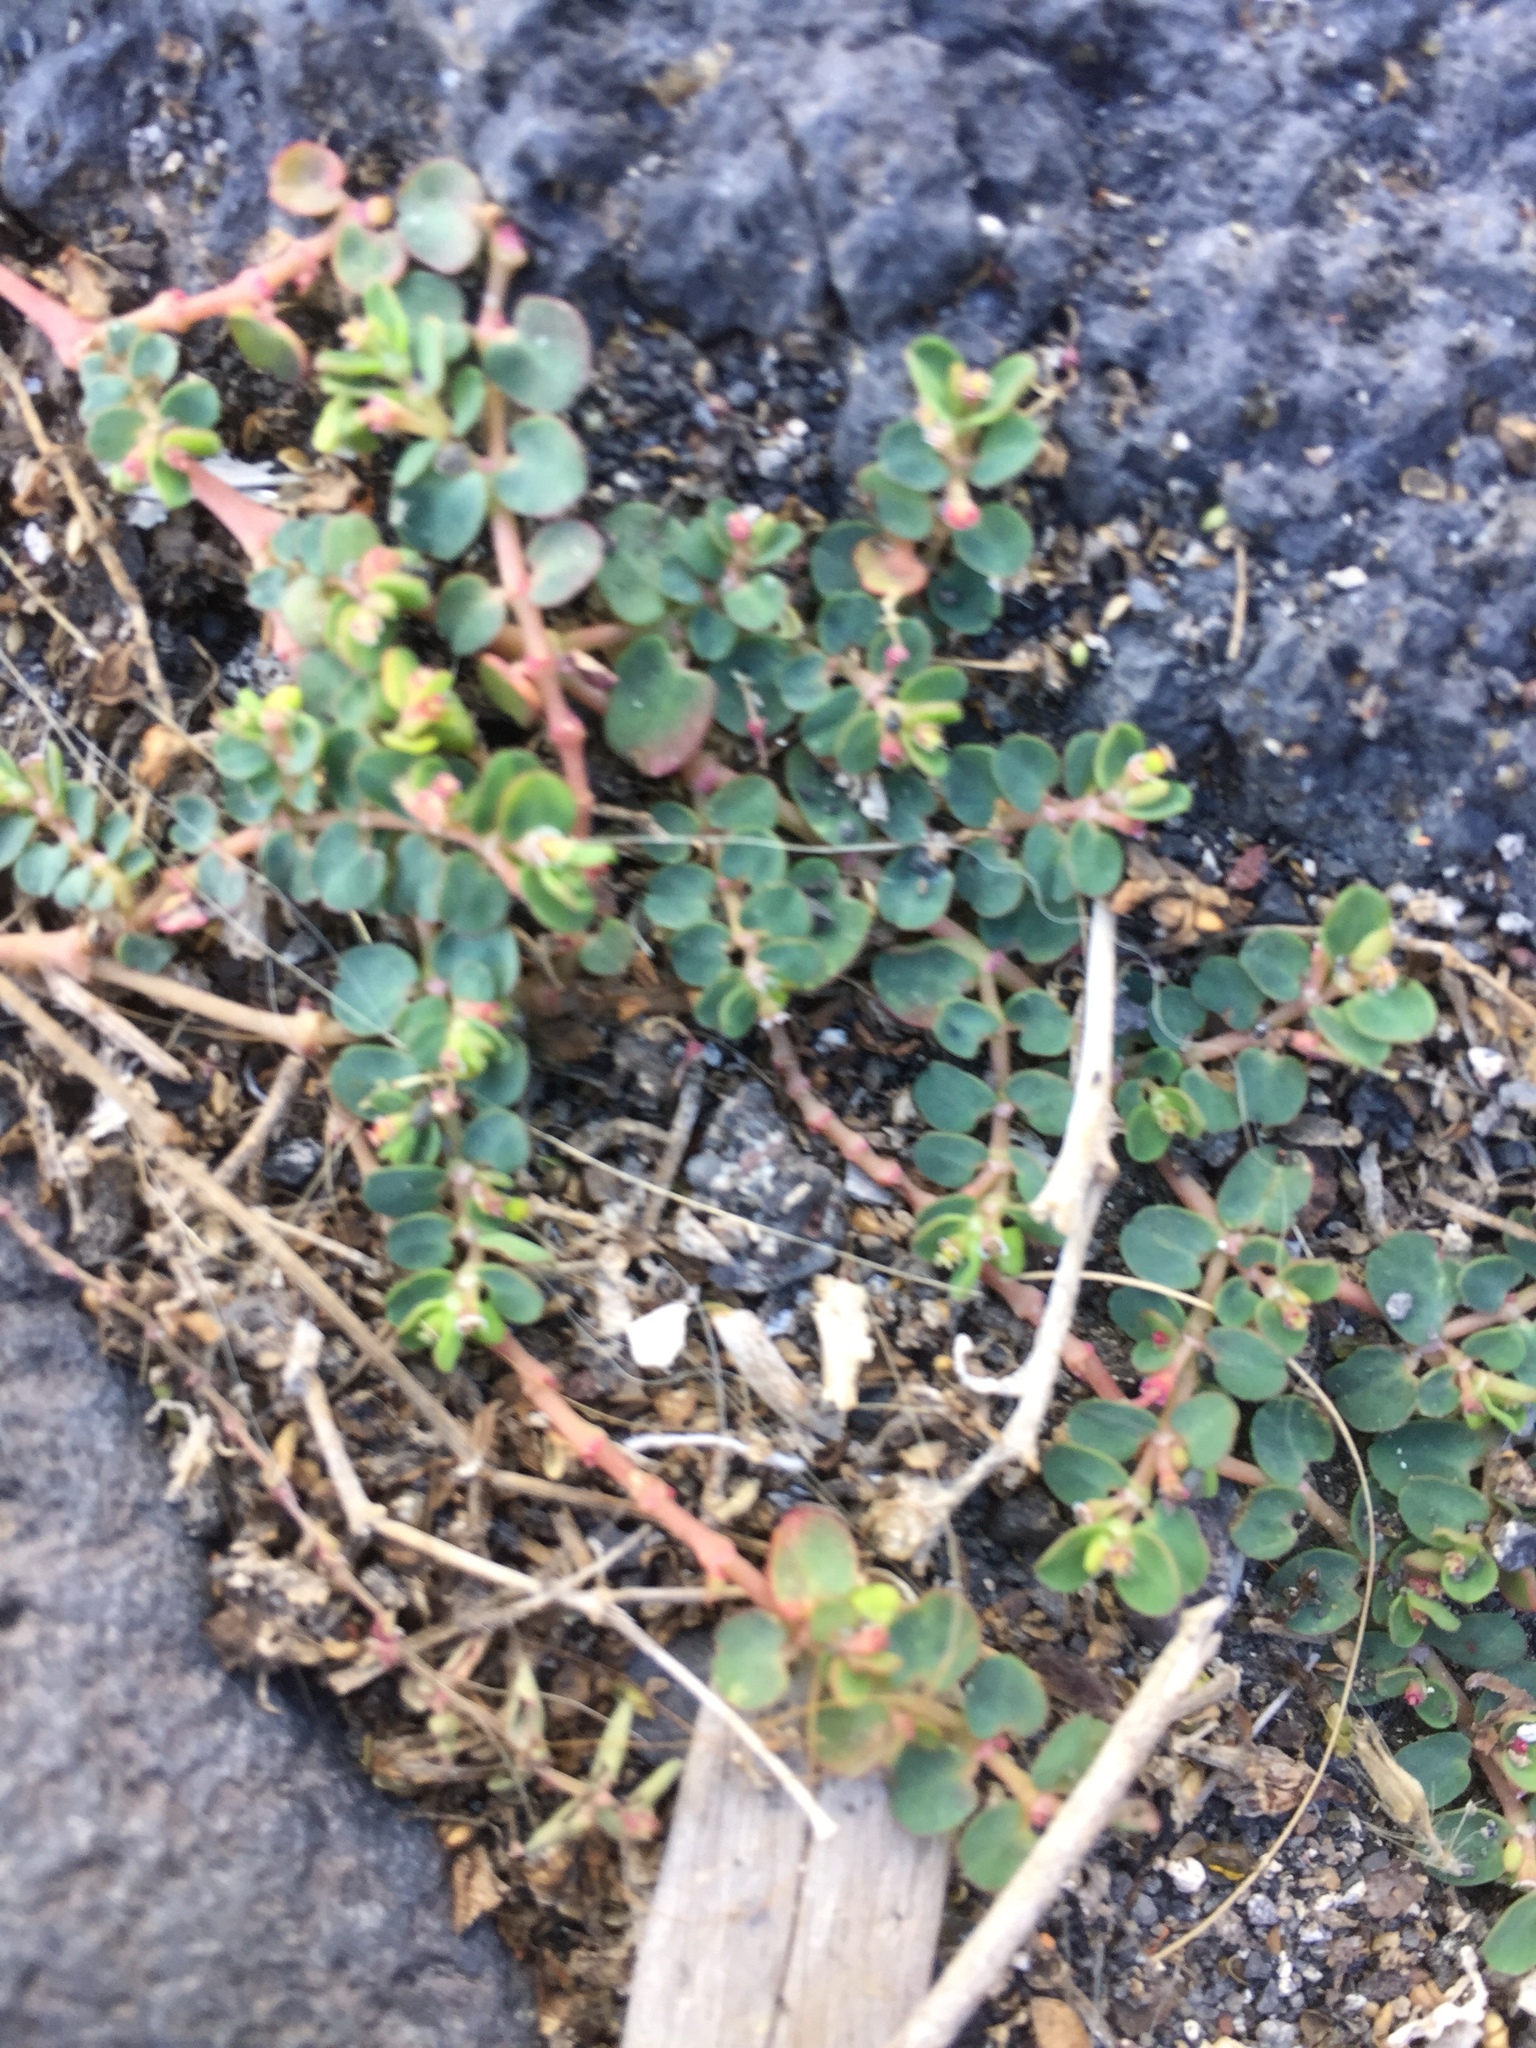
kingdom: Plantae
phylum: Tracheophyta
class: Magnoliopsida
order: Malpighiales
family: Euphorbiaceae
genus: Euphorbia
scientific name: Euphorbia serpens
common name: Matted sandmat
